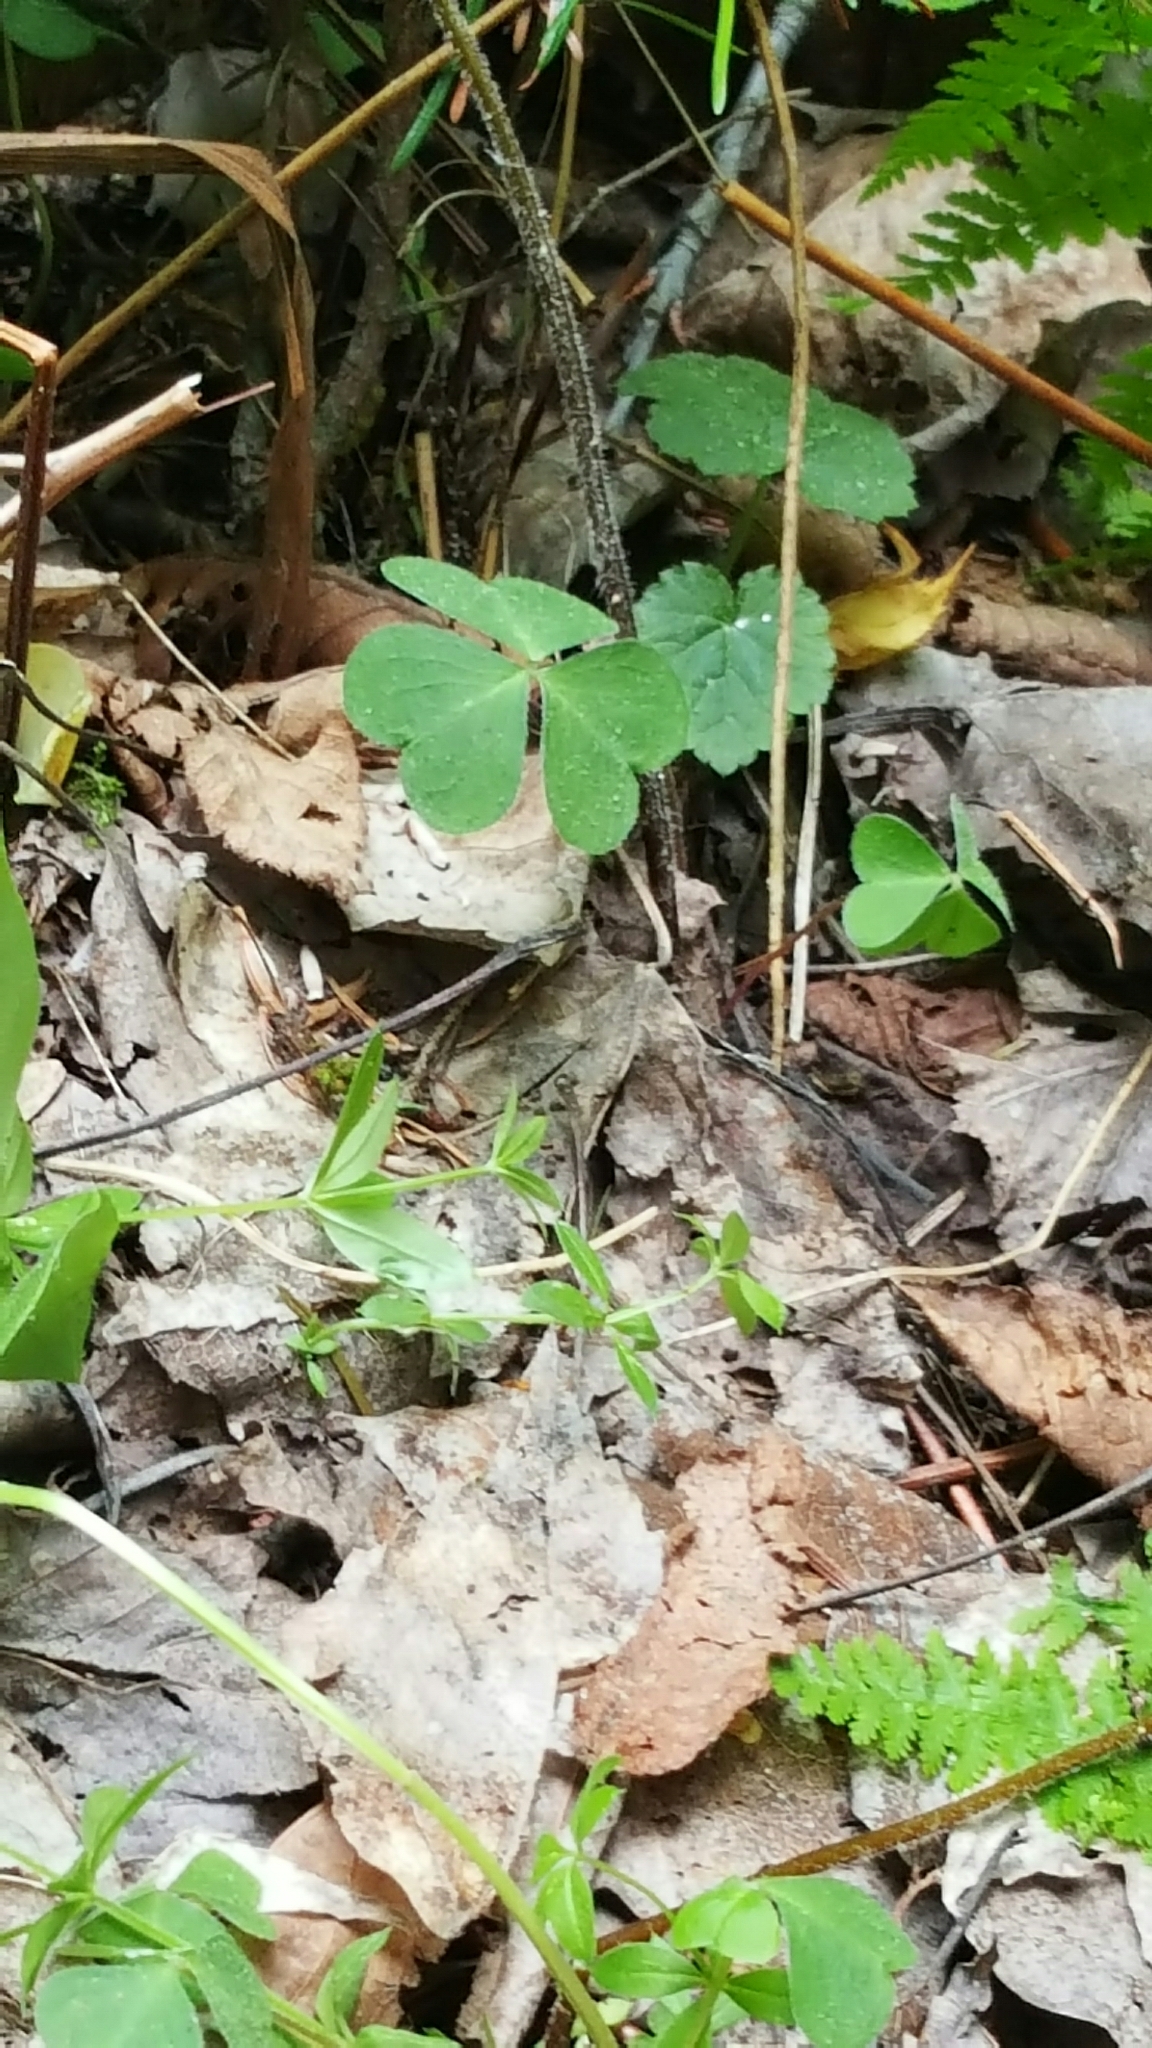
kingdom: Plantae
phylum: Tracheophyta
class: Magnoliopsida
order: Oxalidales
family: Oxalidaceae
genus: Oxalis
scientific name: Oxalis montana
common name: American wood-sorrel
